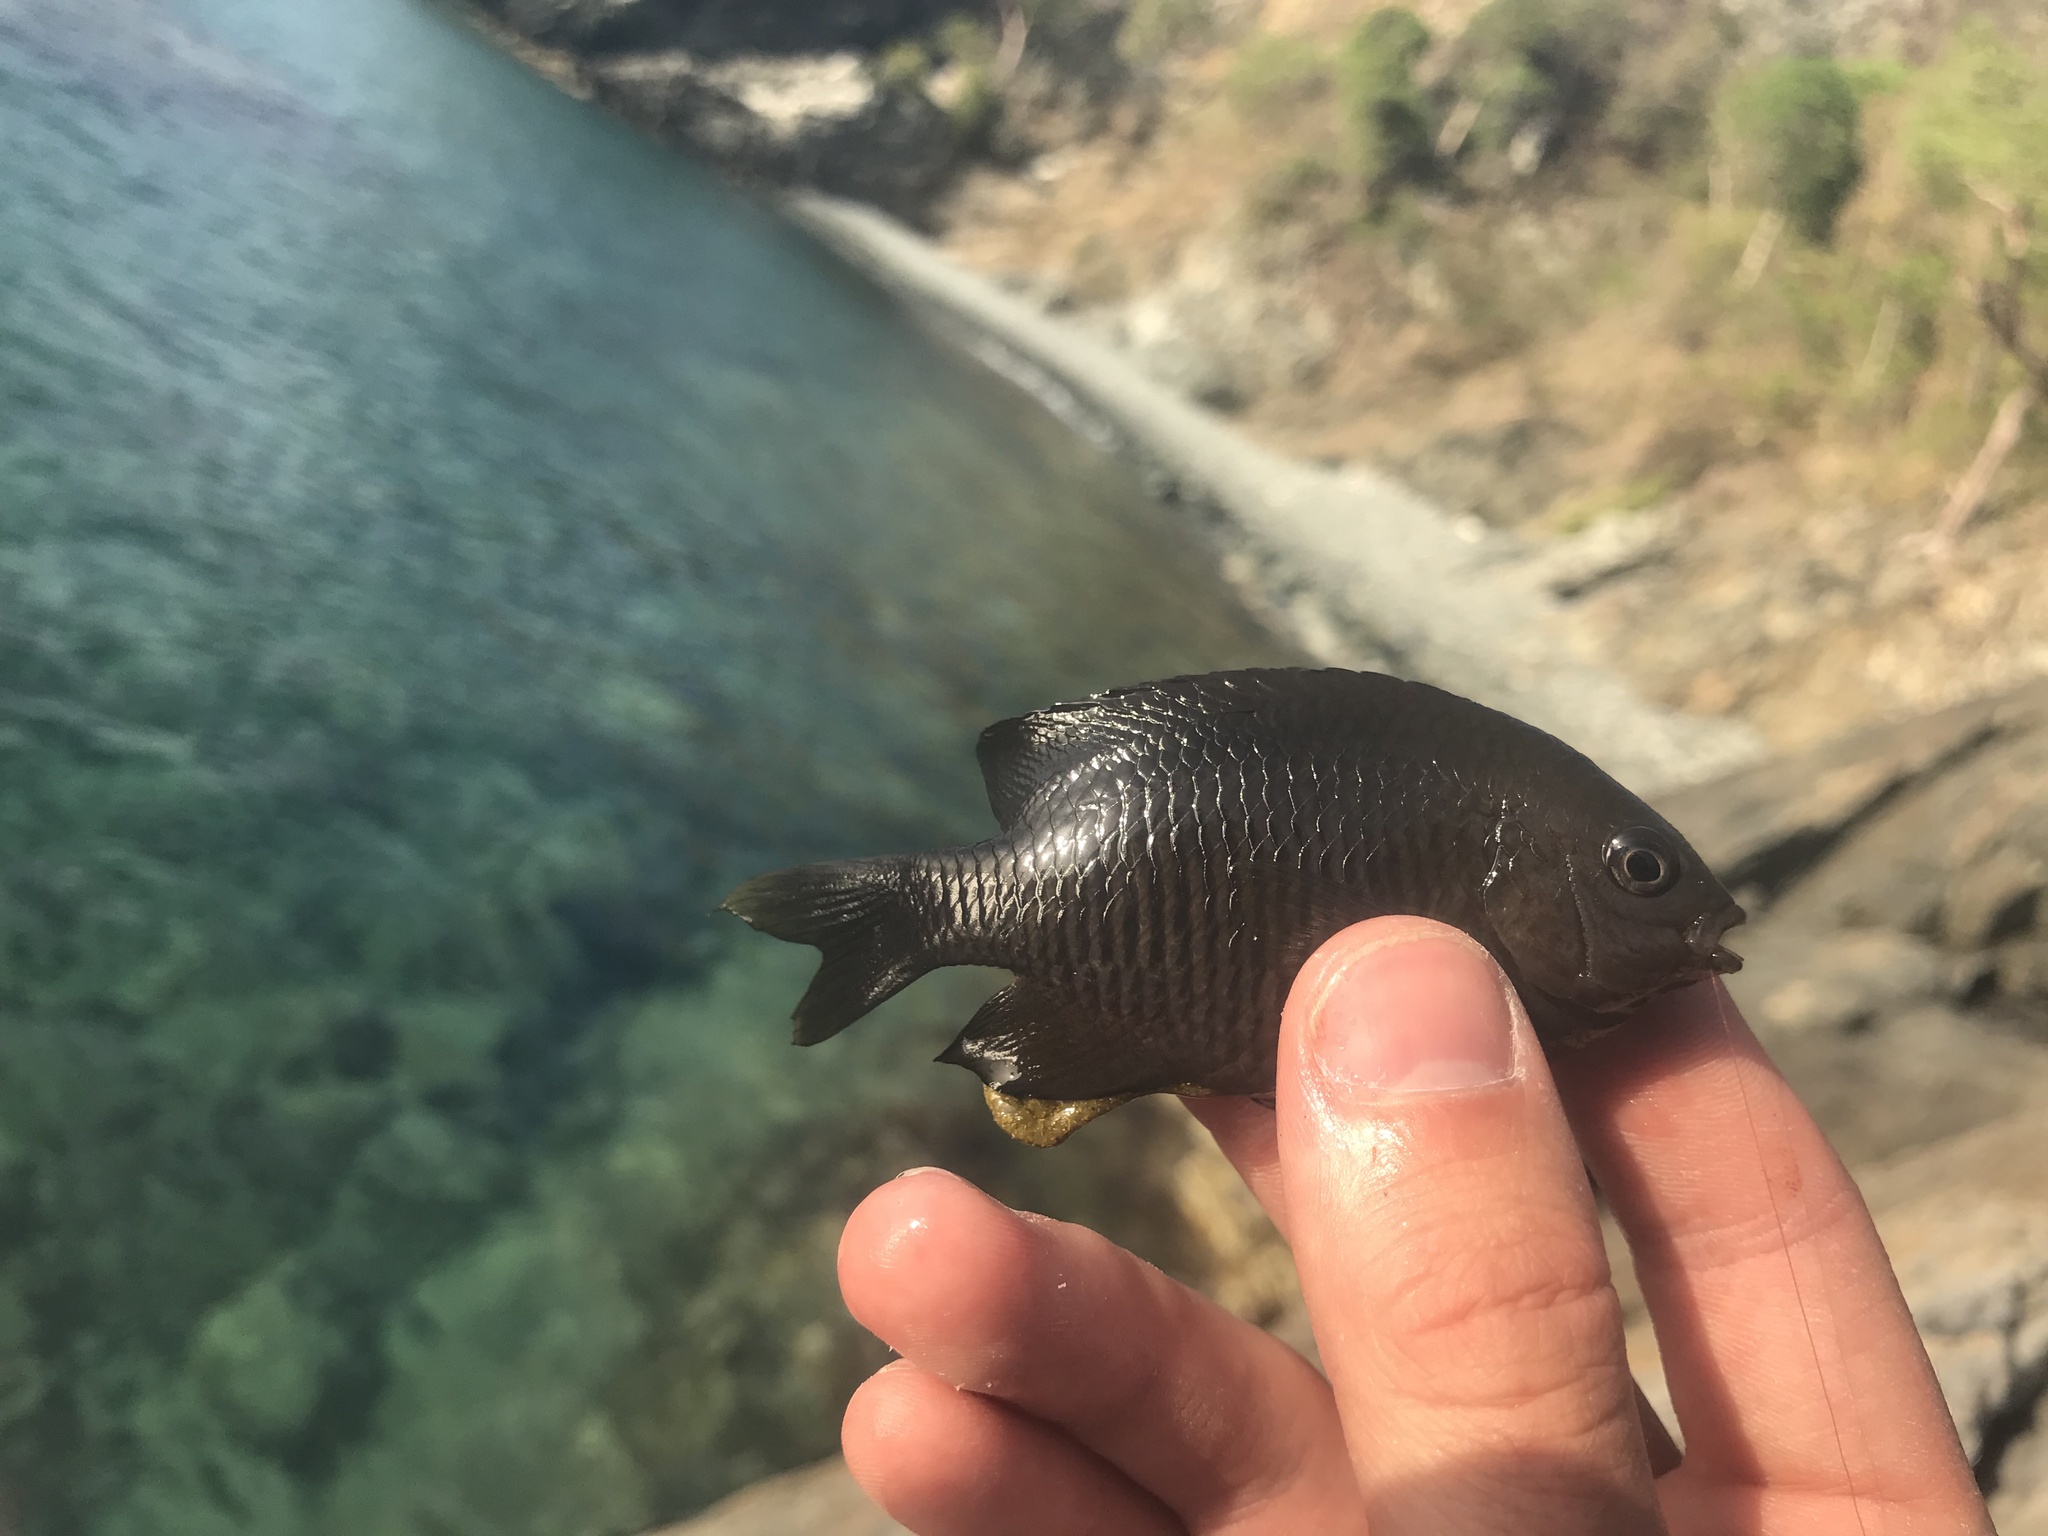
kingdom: Animalia
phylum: Chordata
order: Perciformes
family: Pomacentridae
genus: Stegastes
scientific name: Stegastes adustus
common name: Dusky damselfish
